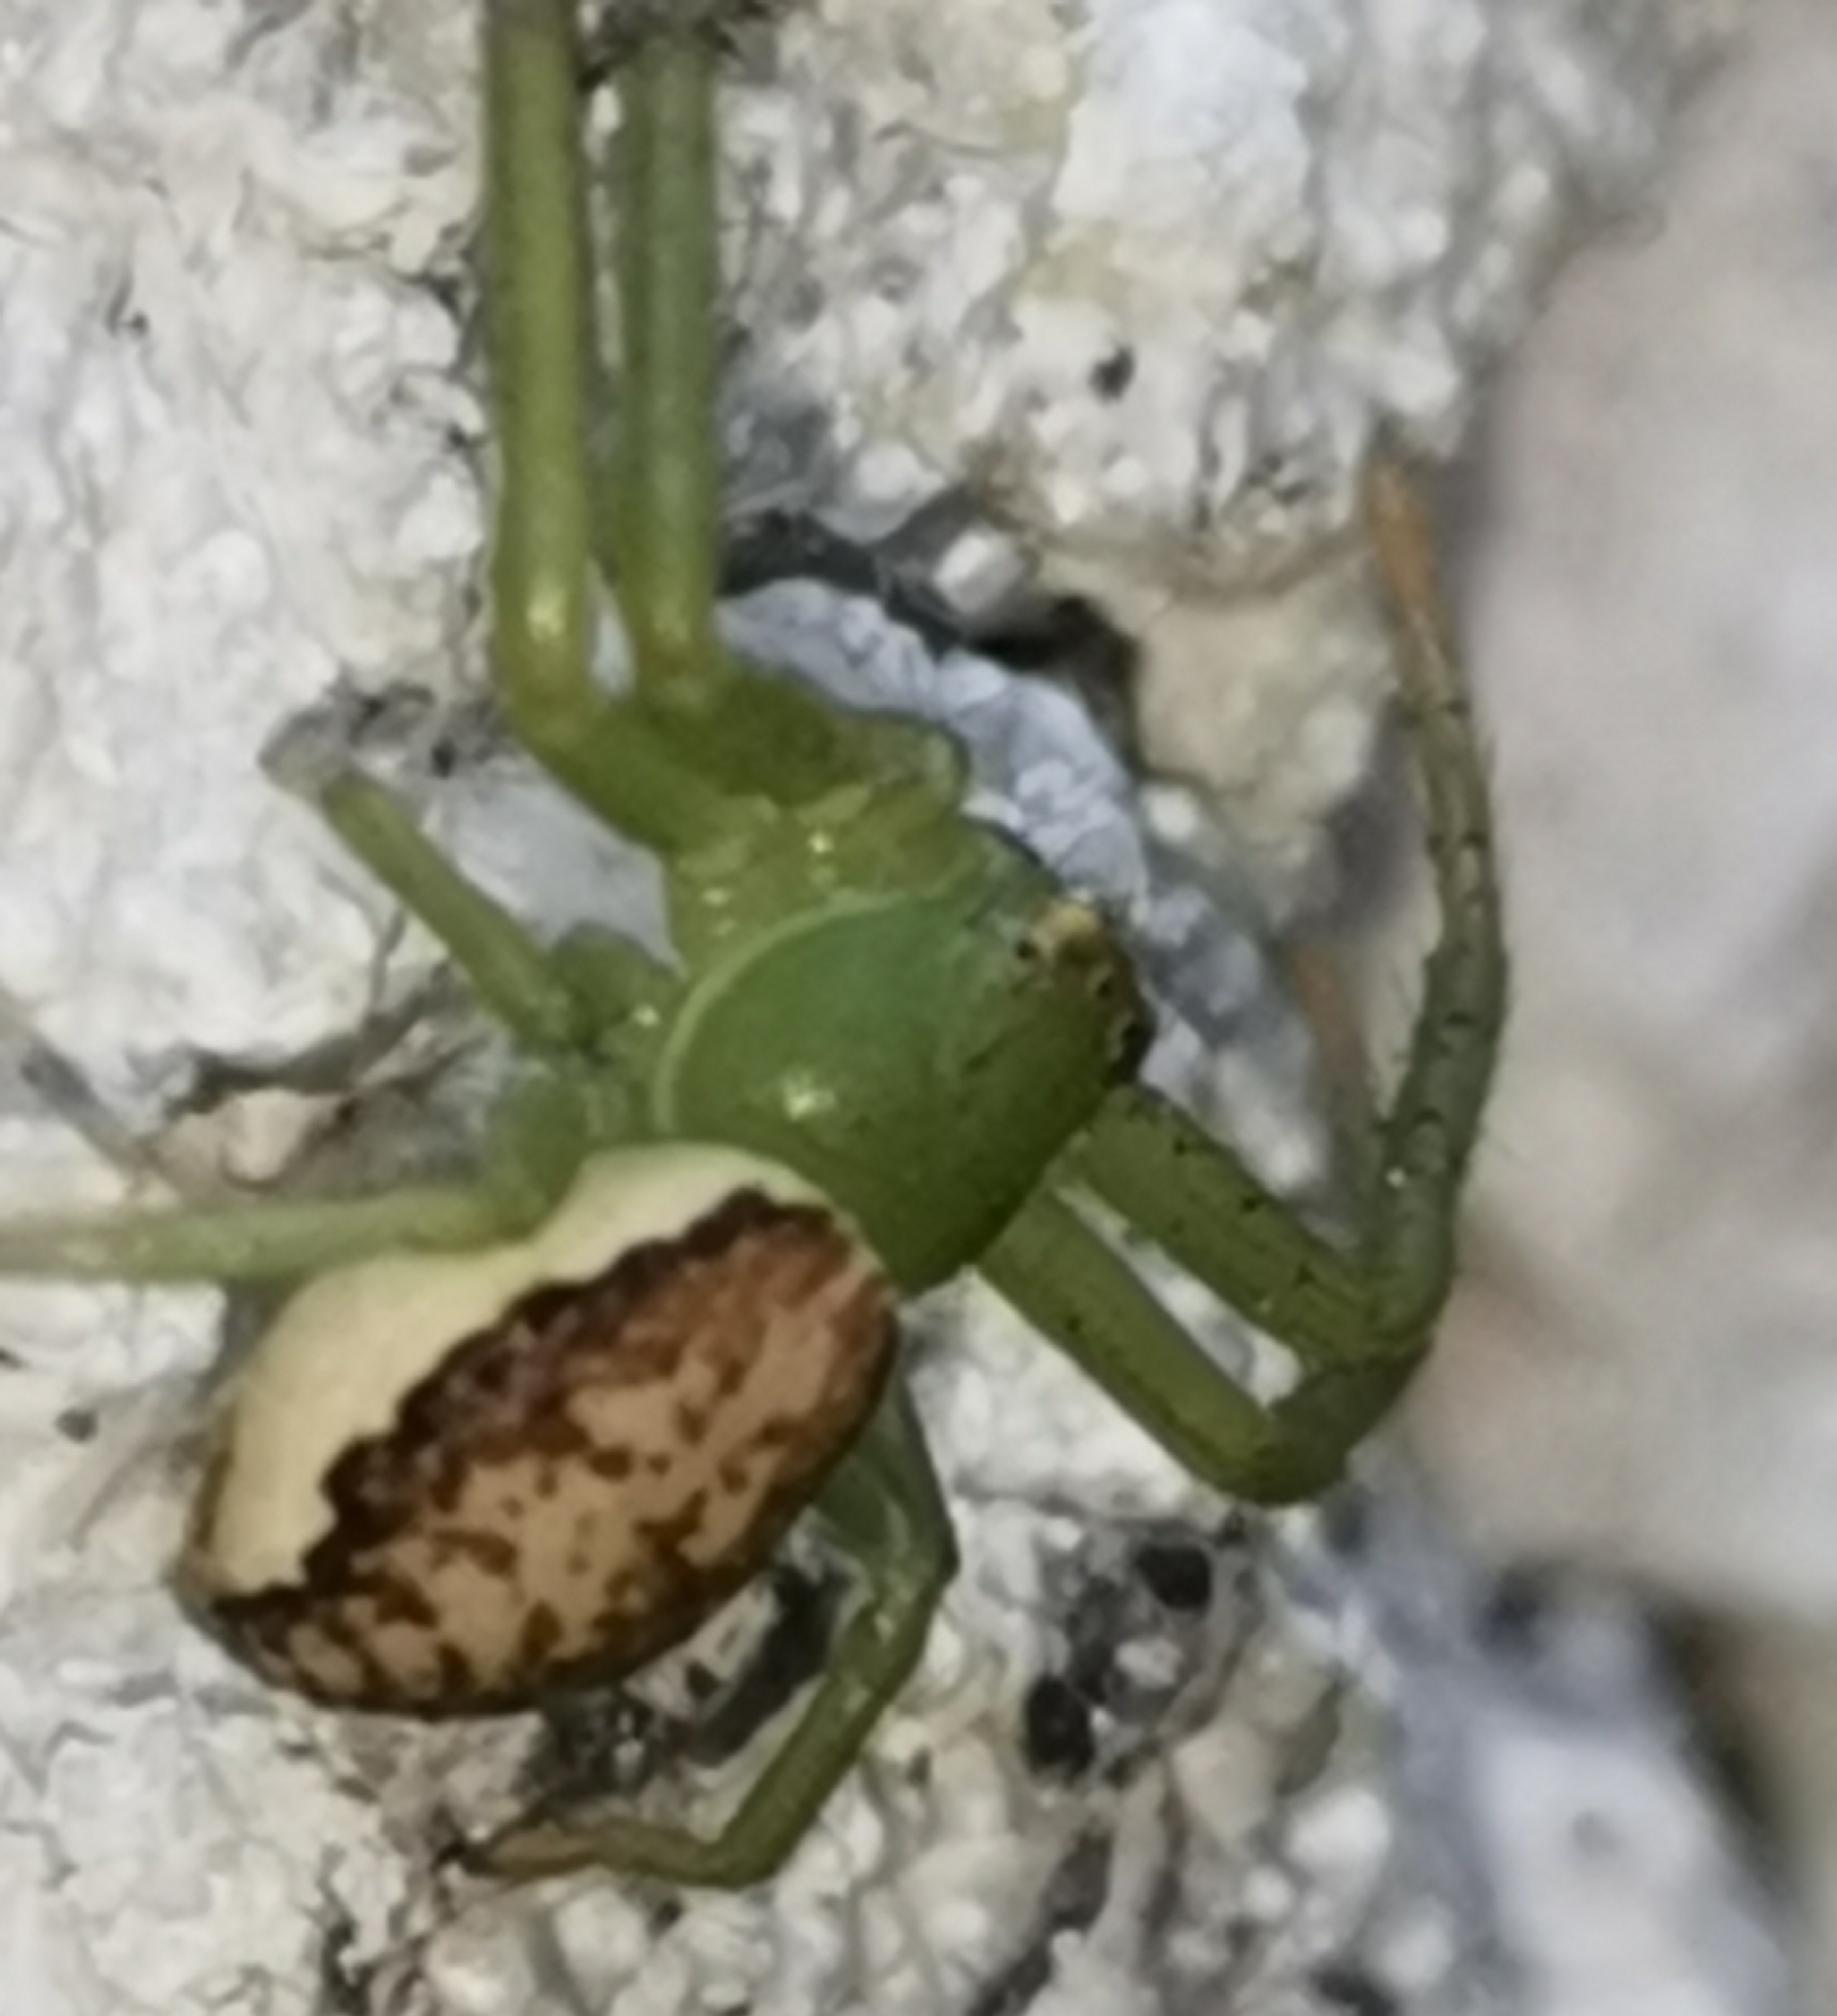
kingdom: Animalia
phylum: Arthropoda
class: Arachnida
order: Araneae
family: Thomisidae
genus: Diaea
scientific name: Diaea dorsata
